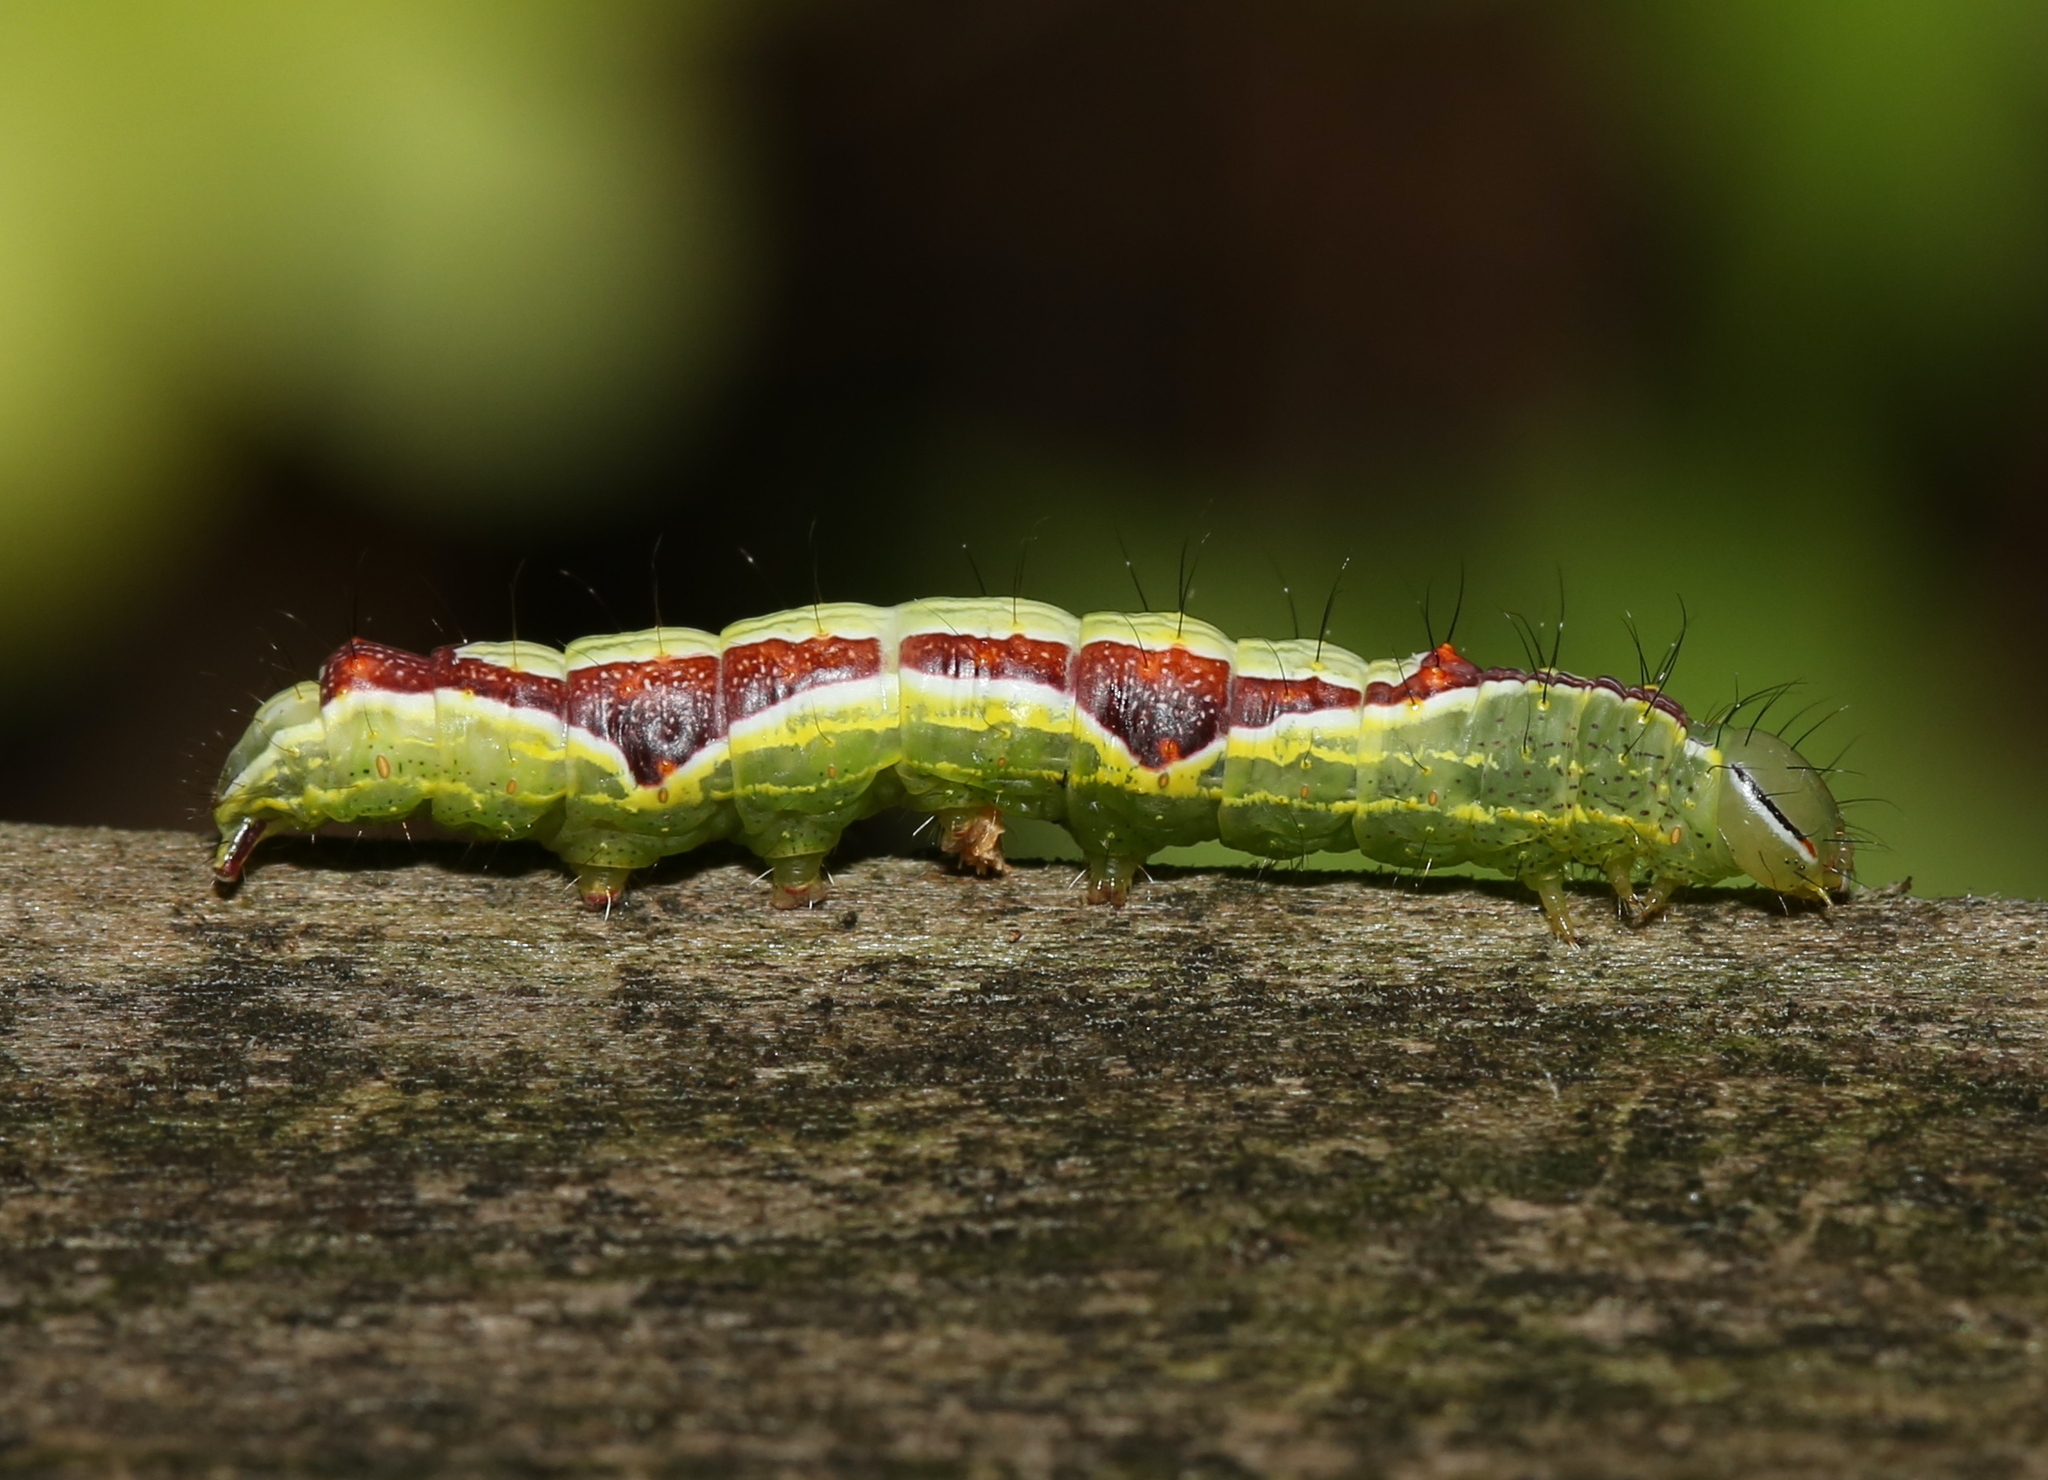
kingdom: Animalia
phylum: Arthropoda
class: Insecta
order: Lepidoptera
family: Notodontidae
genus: Lochmaeus
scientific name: Lochmaeus bilineata
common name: Double-lined prominent
